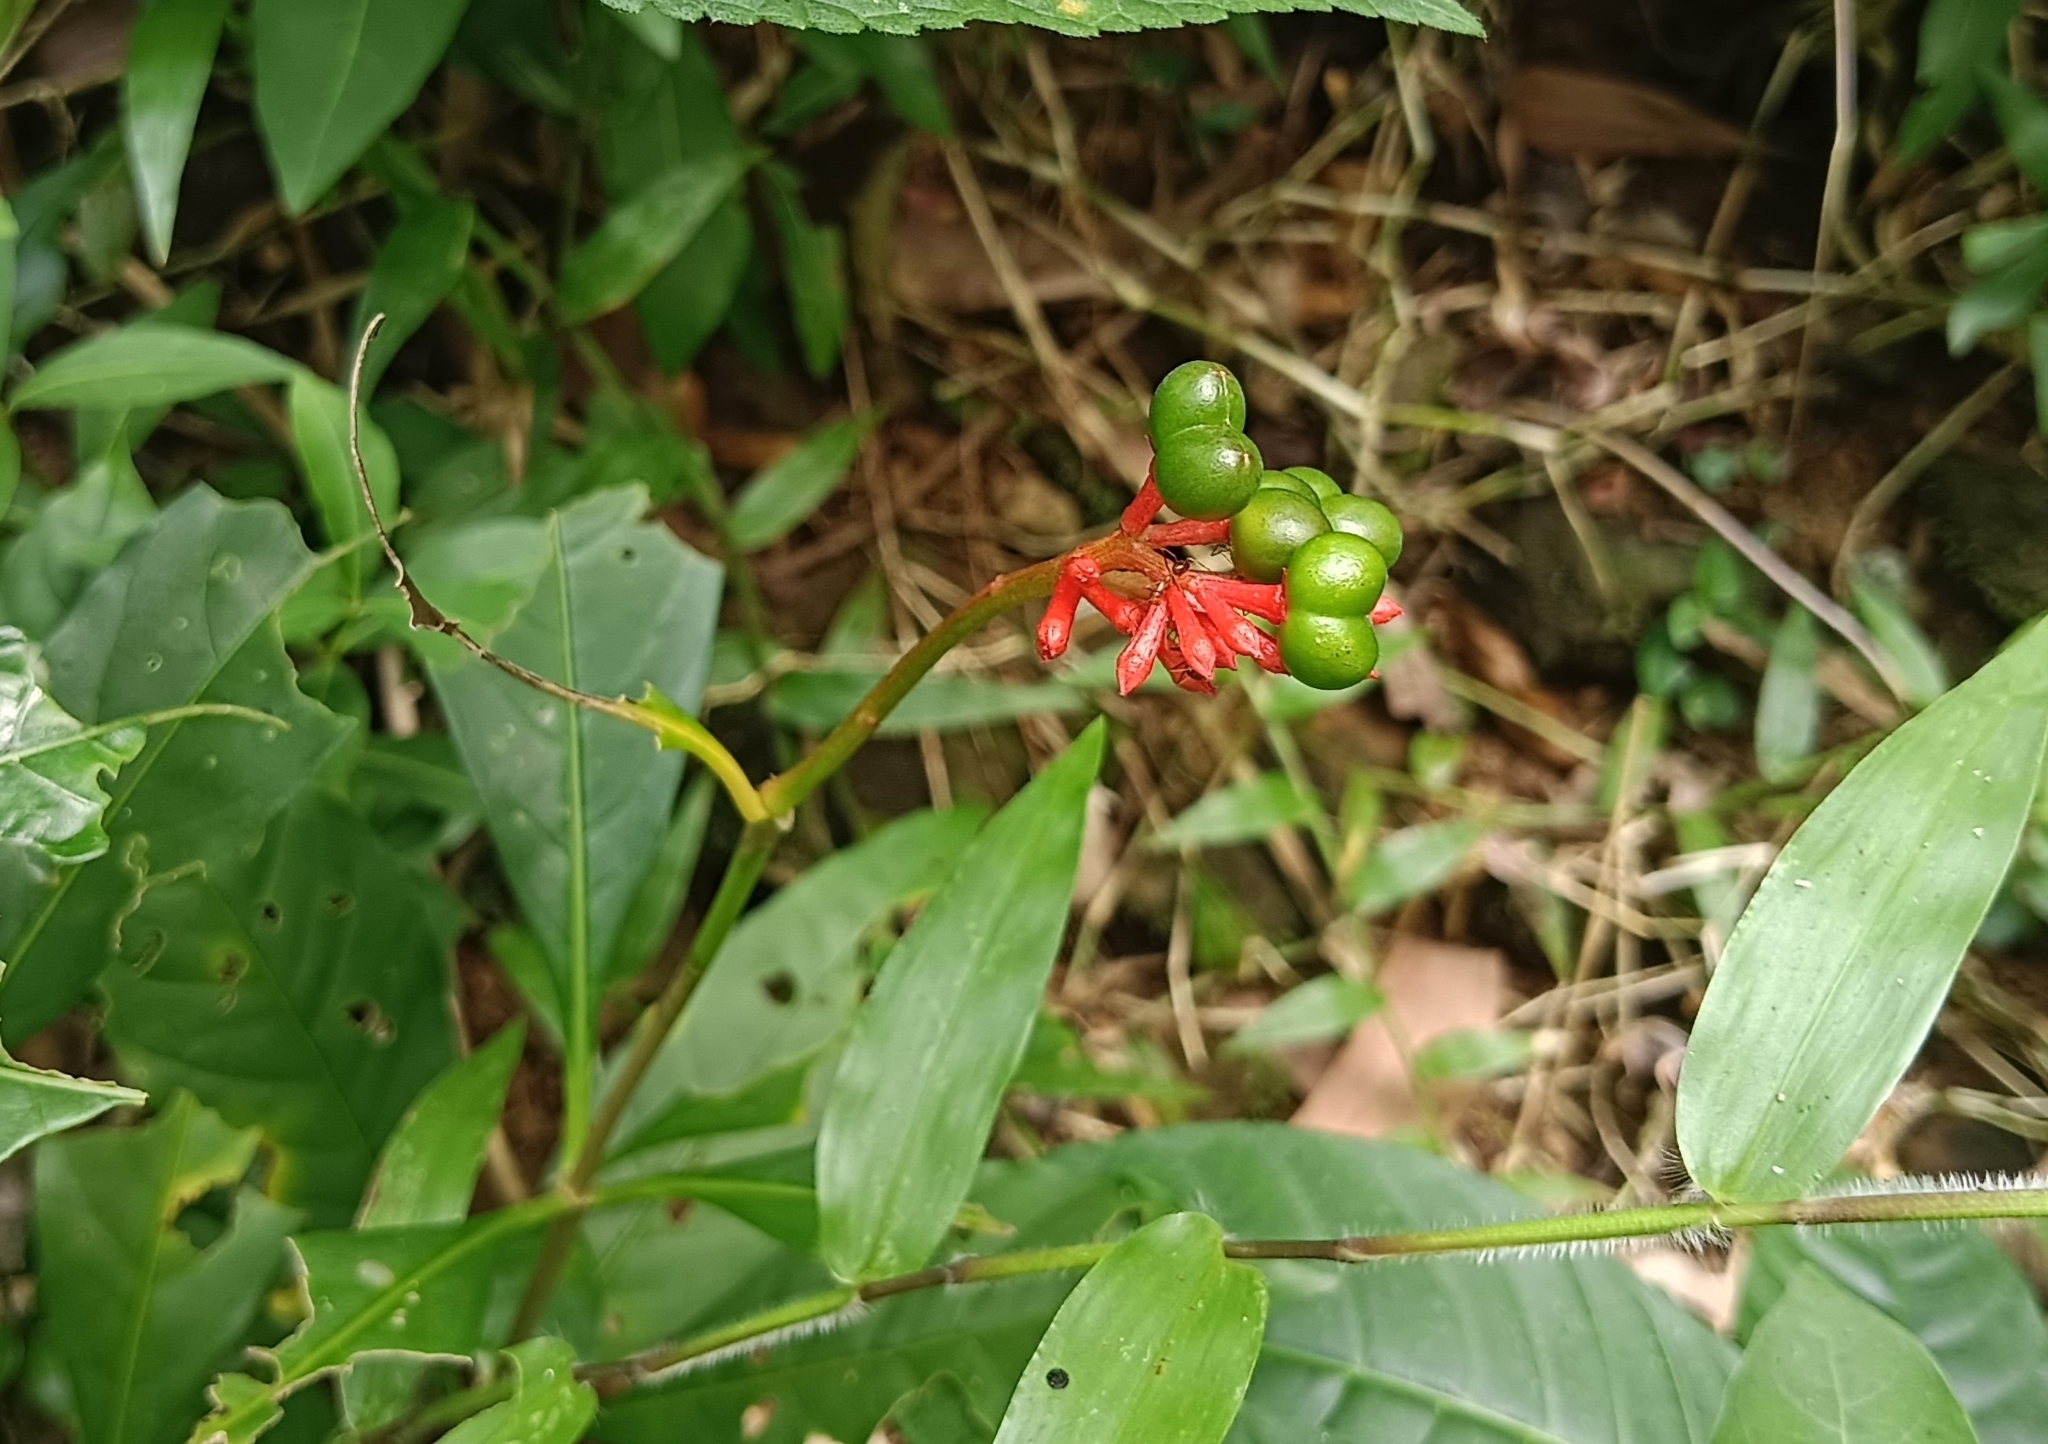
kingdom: Plantae
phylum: Tracheophyta
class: Magnoliopsida
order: Gentianales
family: Apocynaceae
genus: Rauvolfia
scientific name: Rauvolfia serpentina
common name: Ajmaline
